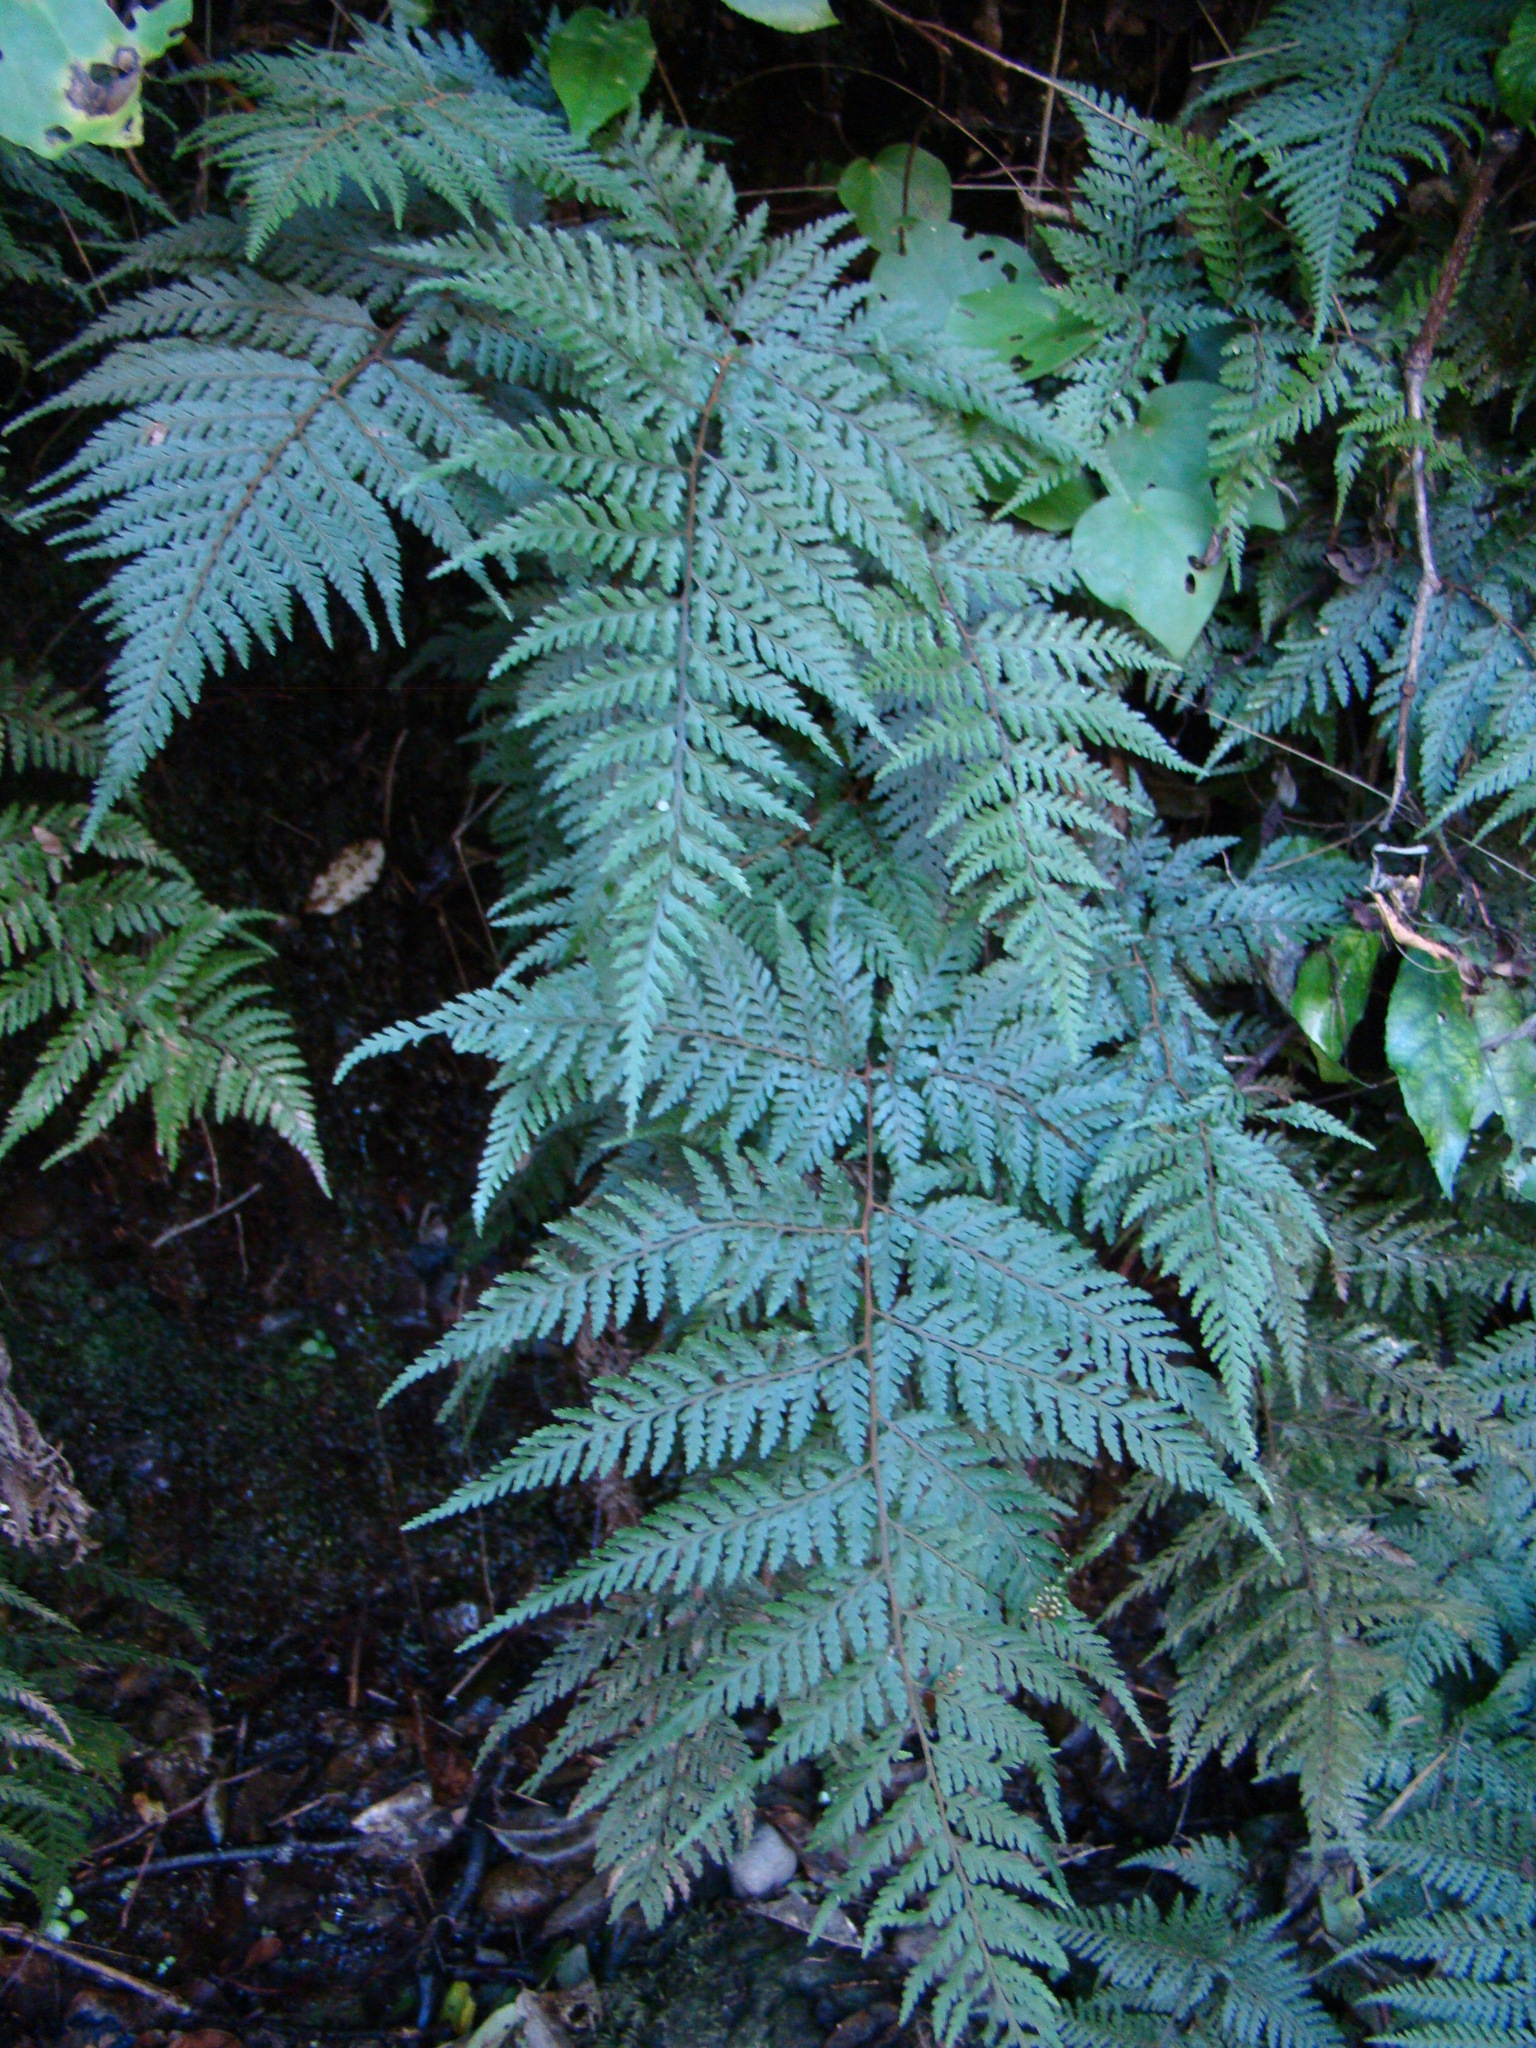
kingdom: Plantae
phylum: Tracheophyta
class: Polypodiopsida
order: Polypodiales
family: Dryopteridaceae
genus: Parapolystichum
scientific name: Parapolystichum glabellum
